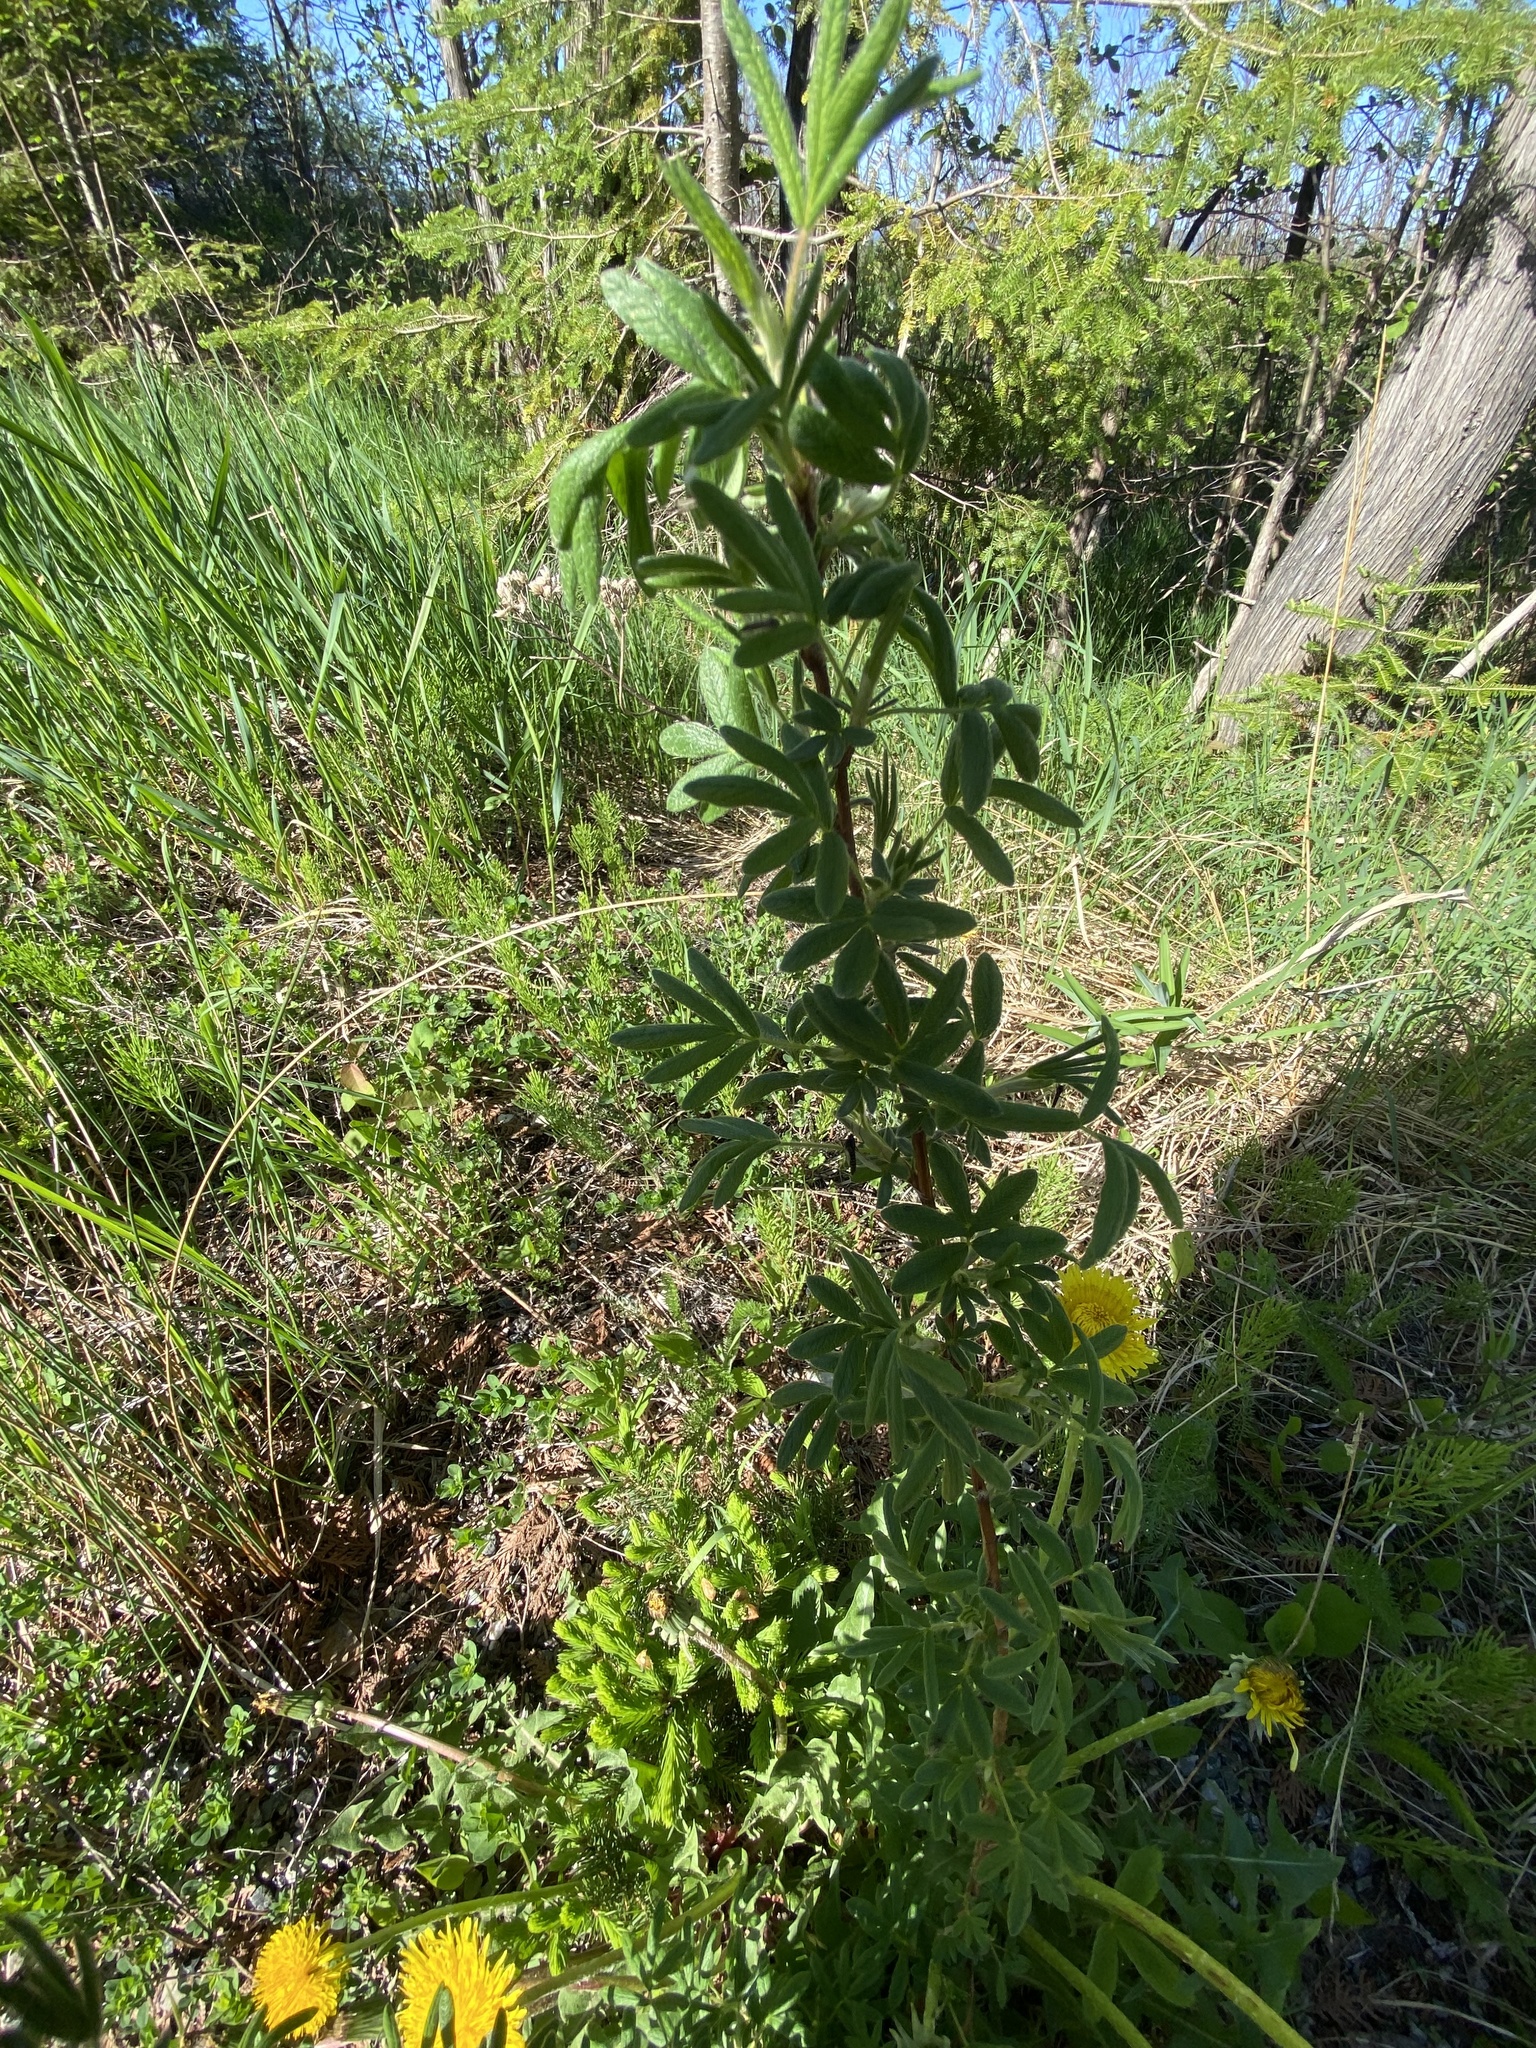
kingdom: Plantae
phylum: Tracheophyta
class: Magnoliopsida
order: Rosales
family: Rosaceae
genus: Dasiphora
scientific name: Dasiphora fruticosa
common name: Shrubby cinquefoil
